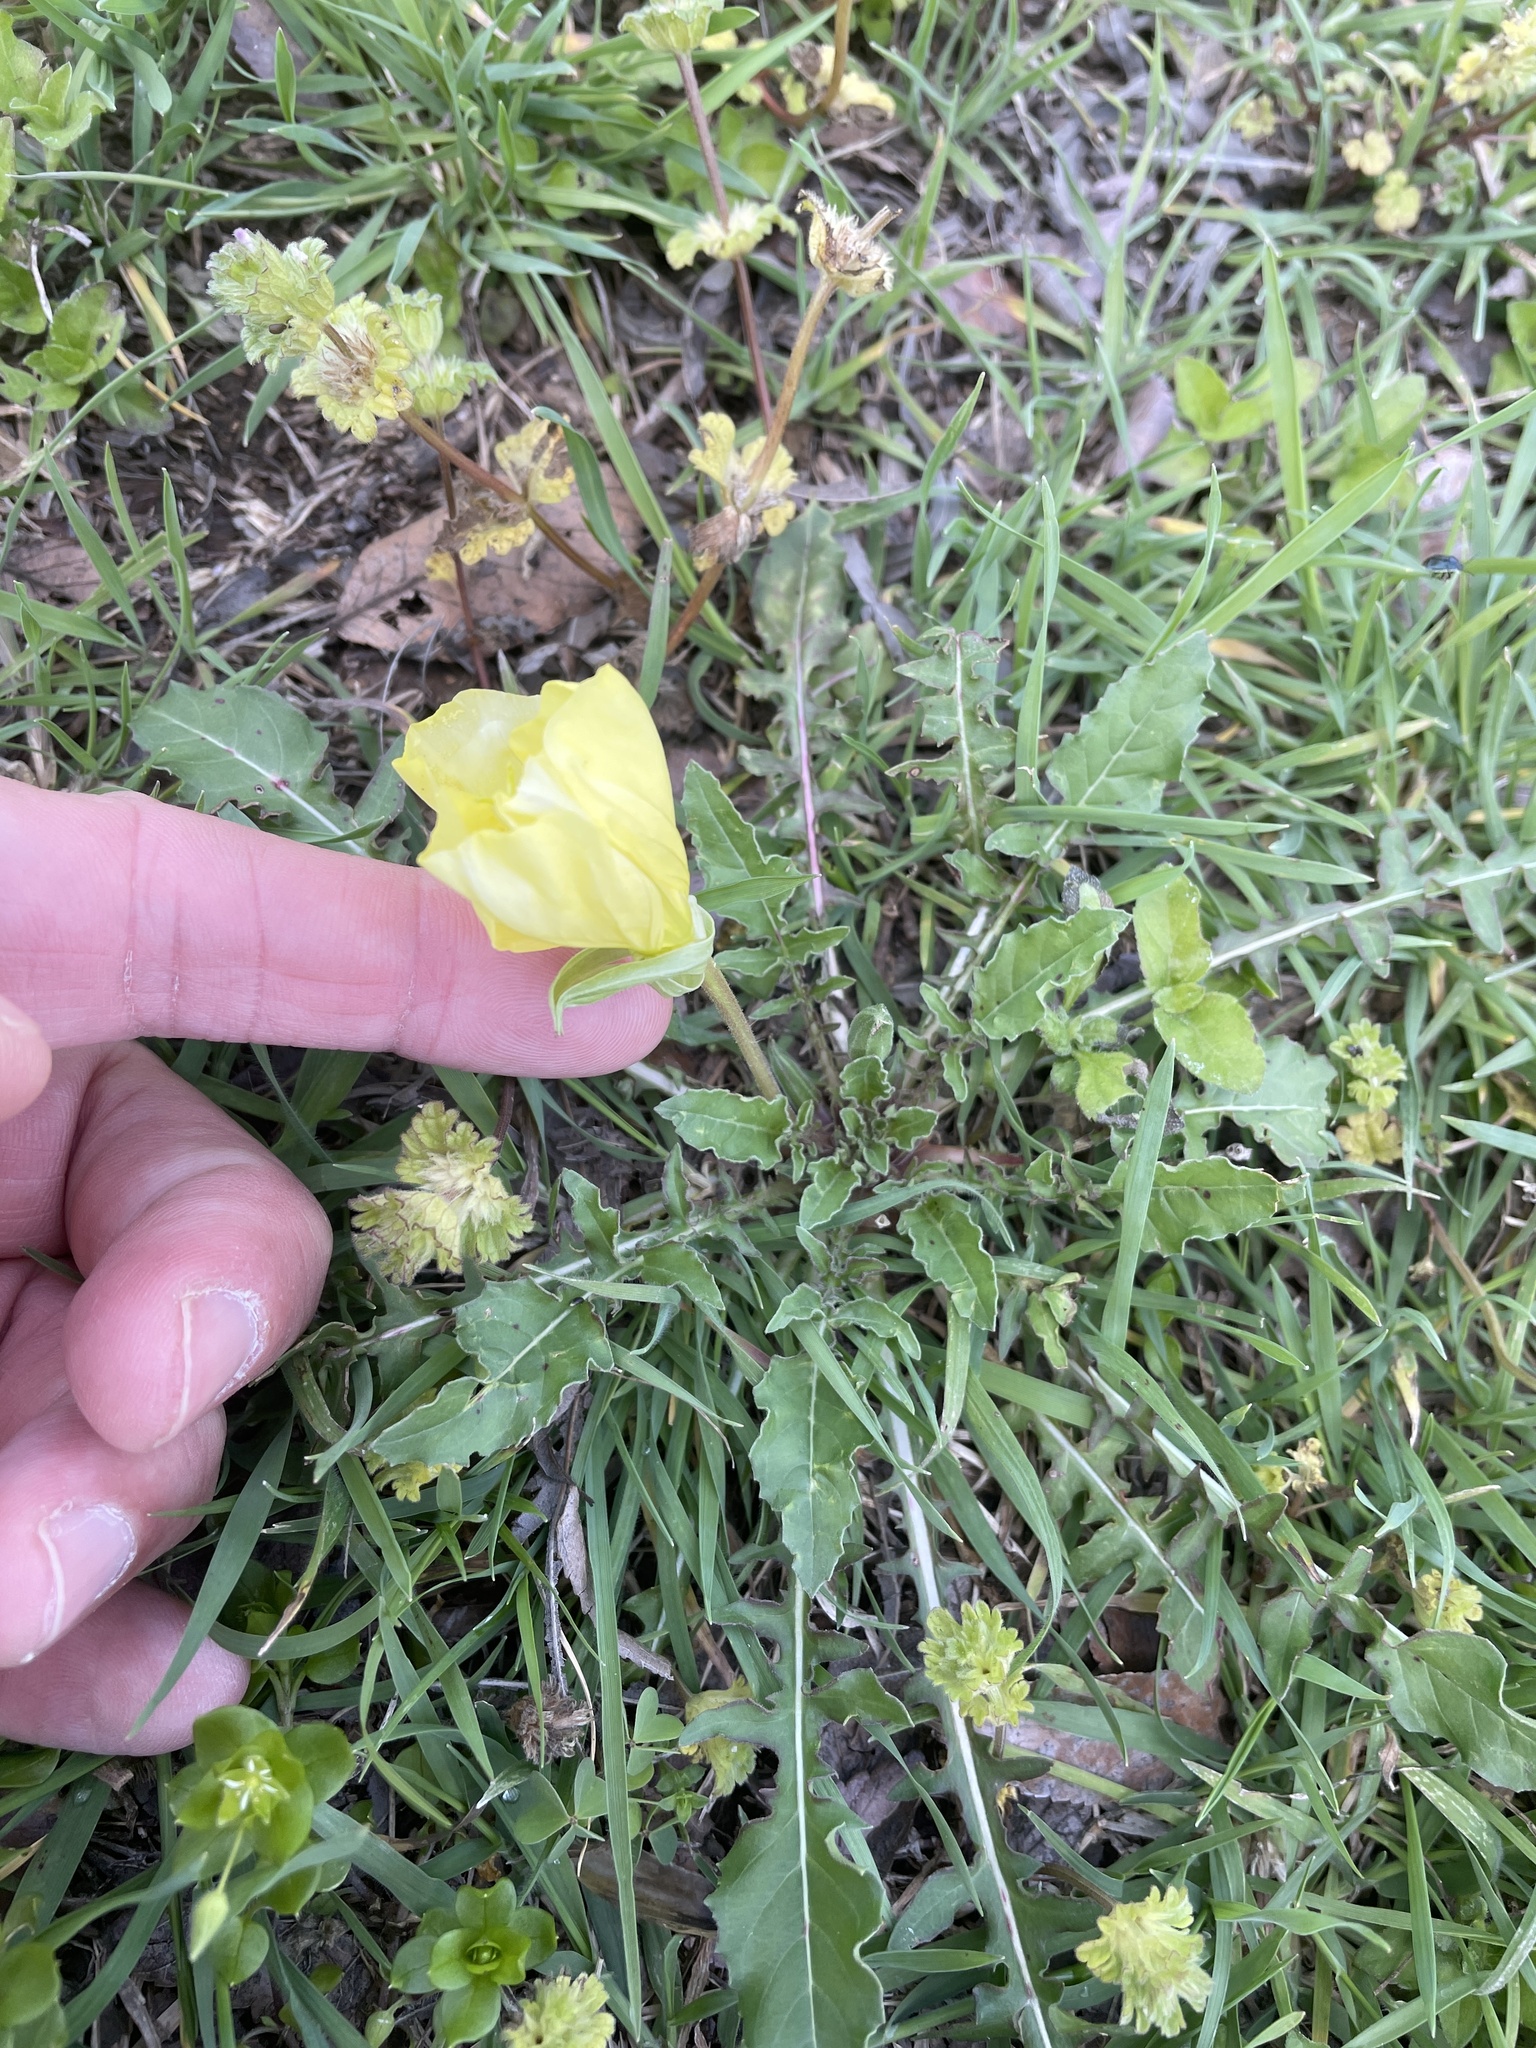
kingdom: Plantae
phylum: Tracheophyta
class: Magnoliopsida
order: Myrtales
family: Onagraceae
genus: Oenothera
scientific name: Oenothera triloba
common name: Sessile evening-primrose
